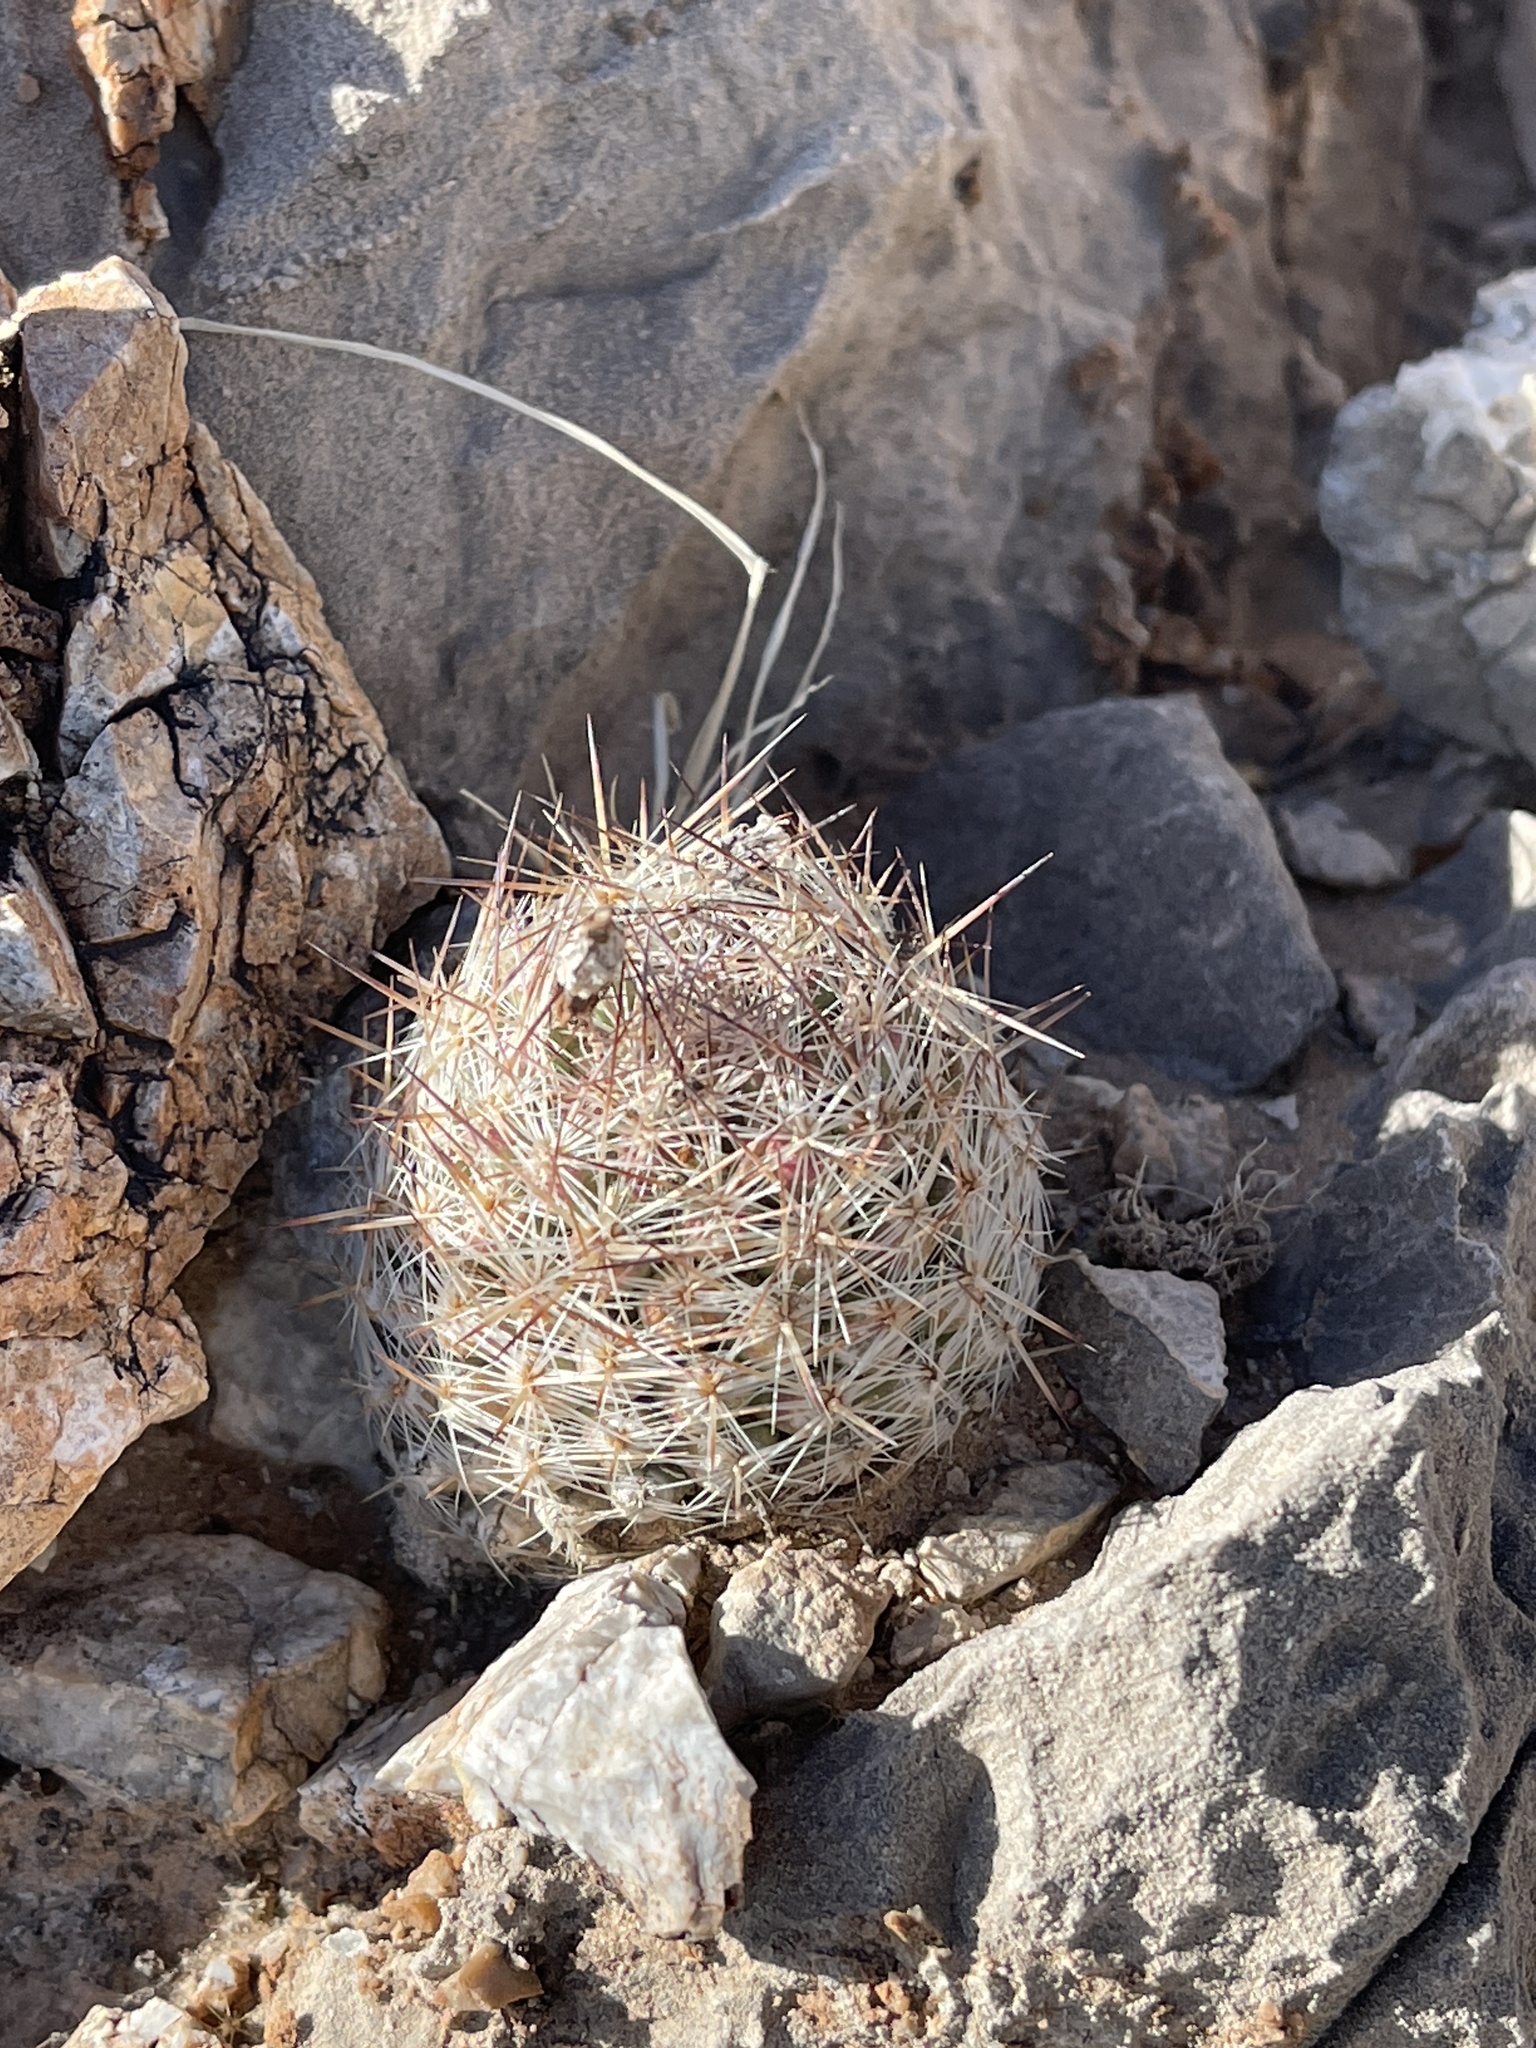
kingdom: Plantae
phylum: Tracheophyta
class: Magnoliopsida
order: Caryophyllales
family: Cactaceae
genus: Pelecyphora
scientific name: Pelecyphora tuberculosa
